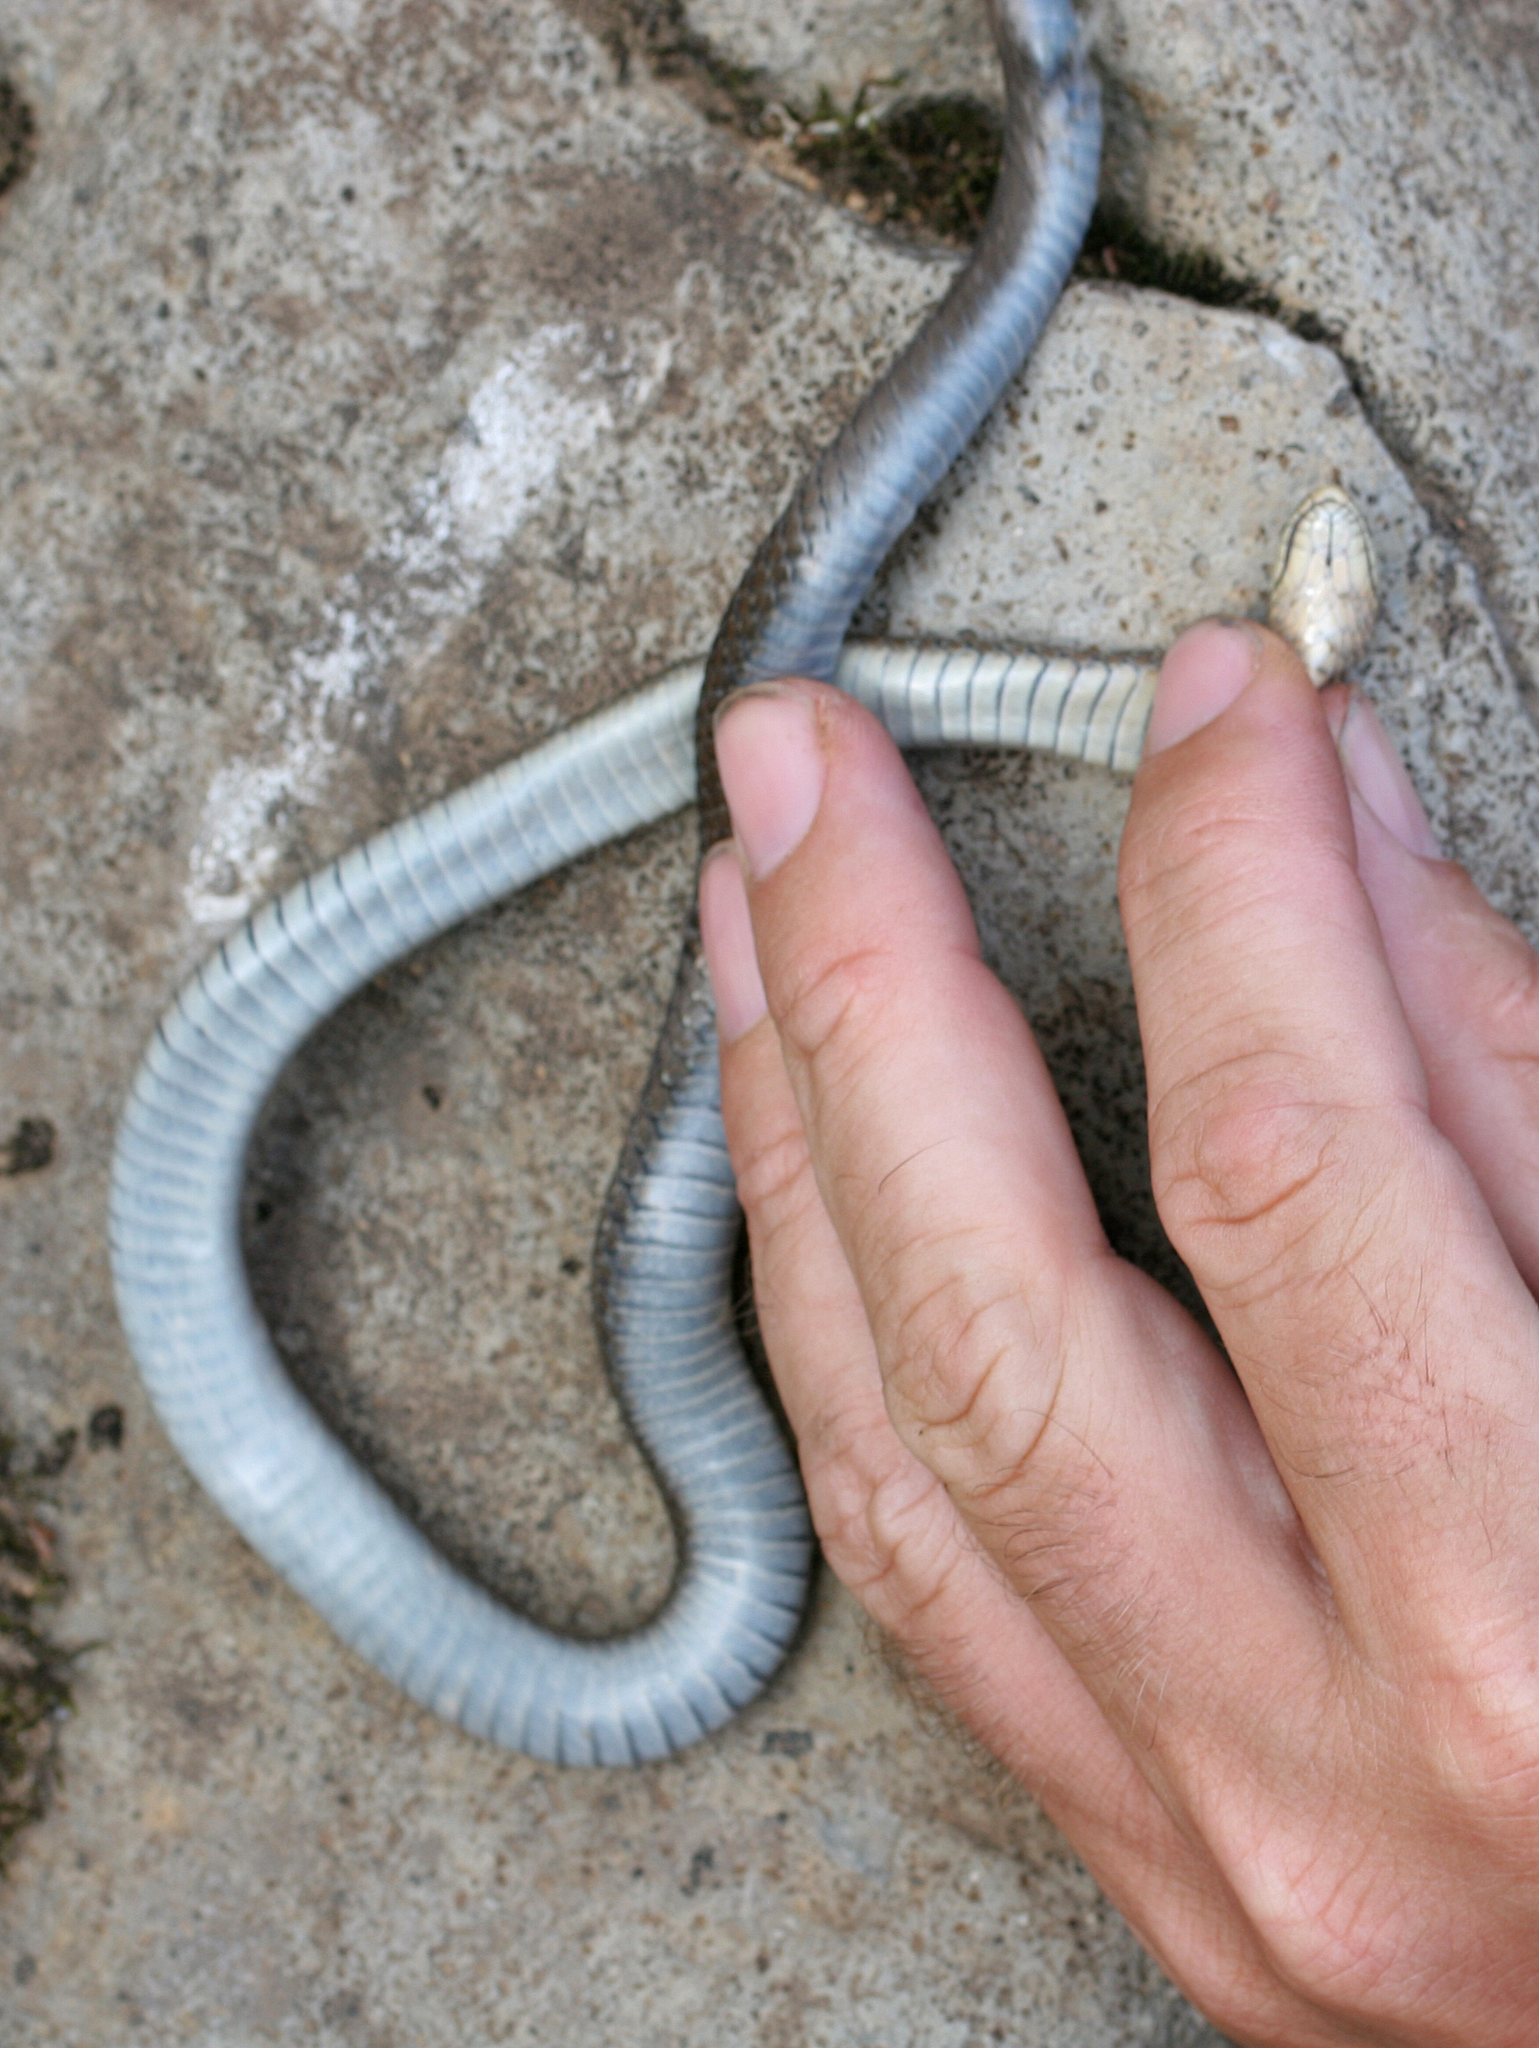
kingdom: Animalia
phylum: Chordata
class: Squamata
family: Colubridae
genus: Thamnophis
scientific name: Thamnophis ordinoides
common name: Northwestern garter snake
